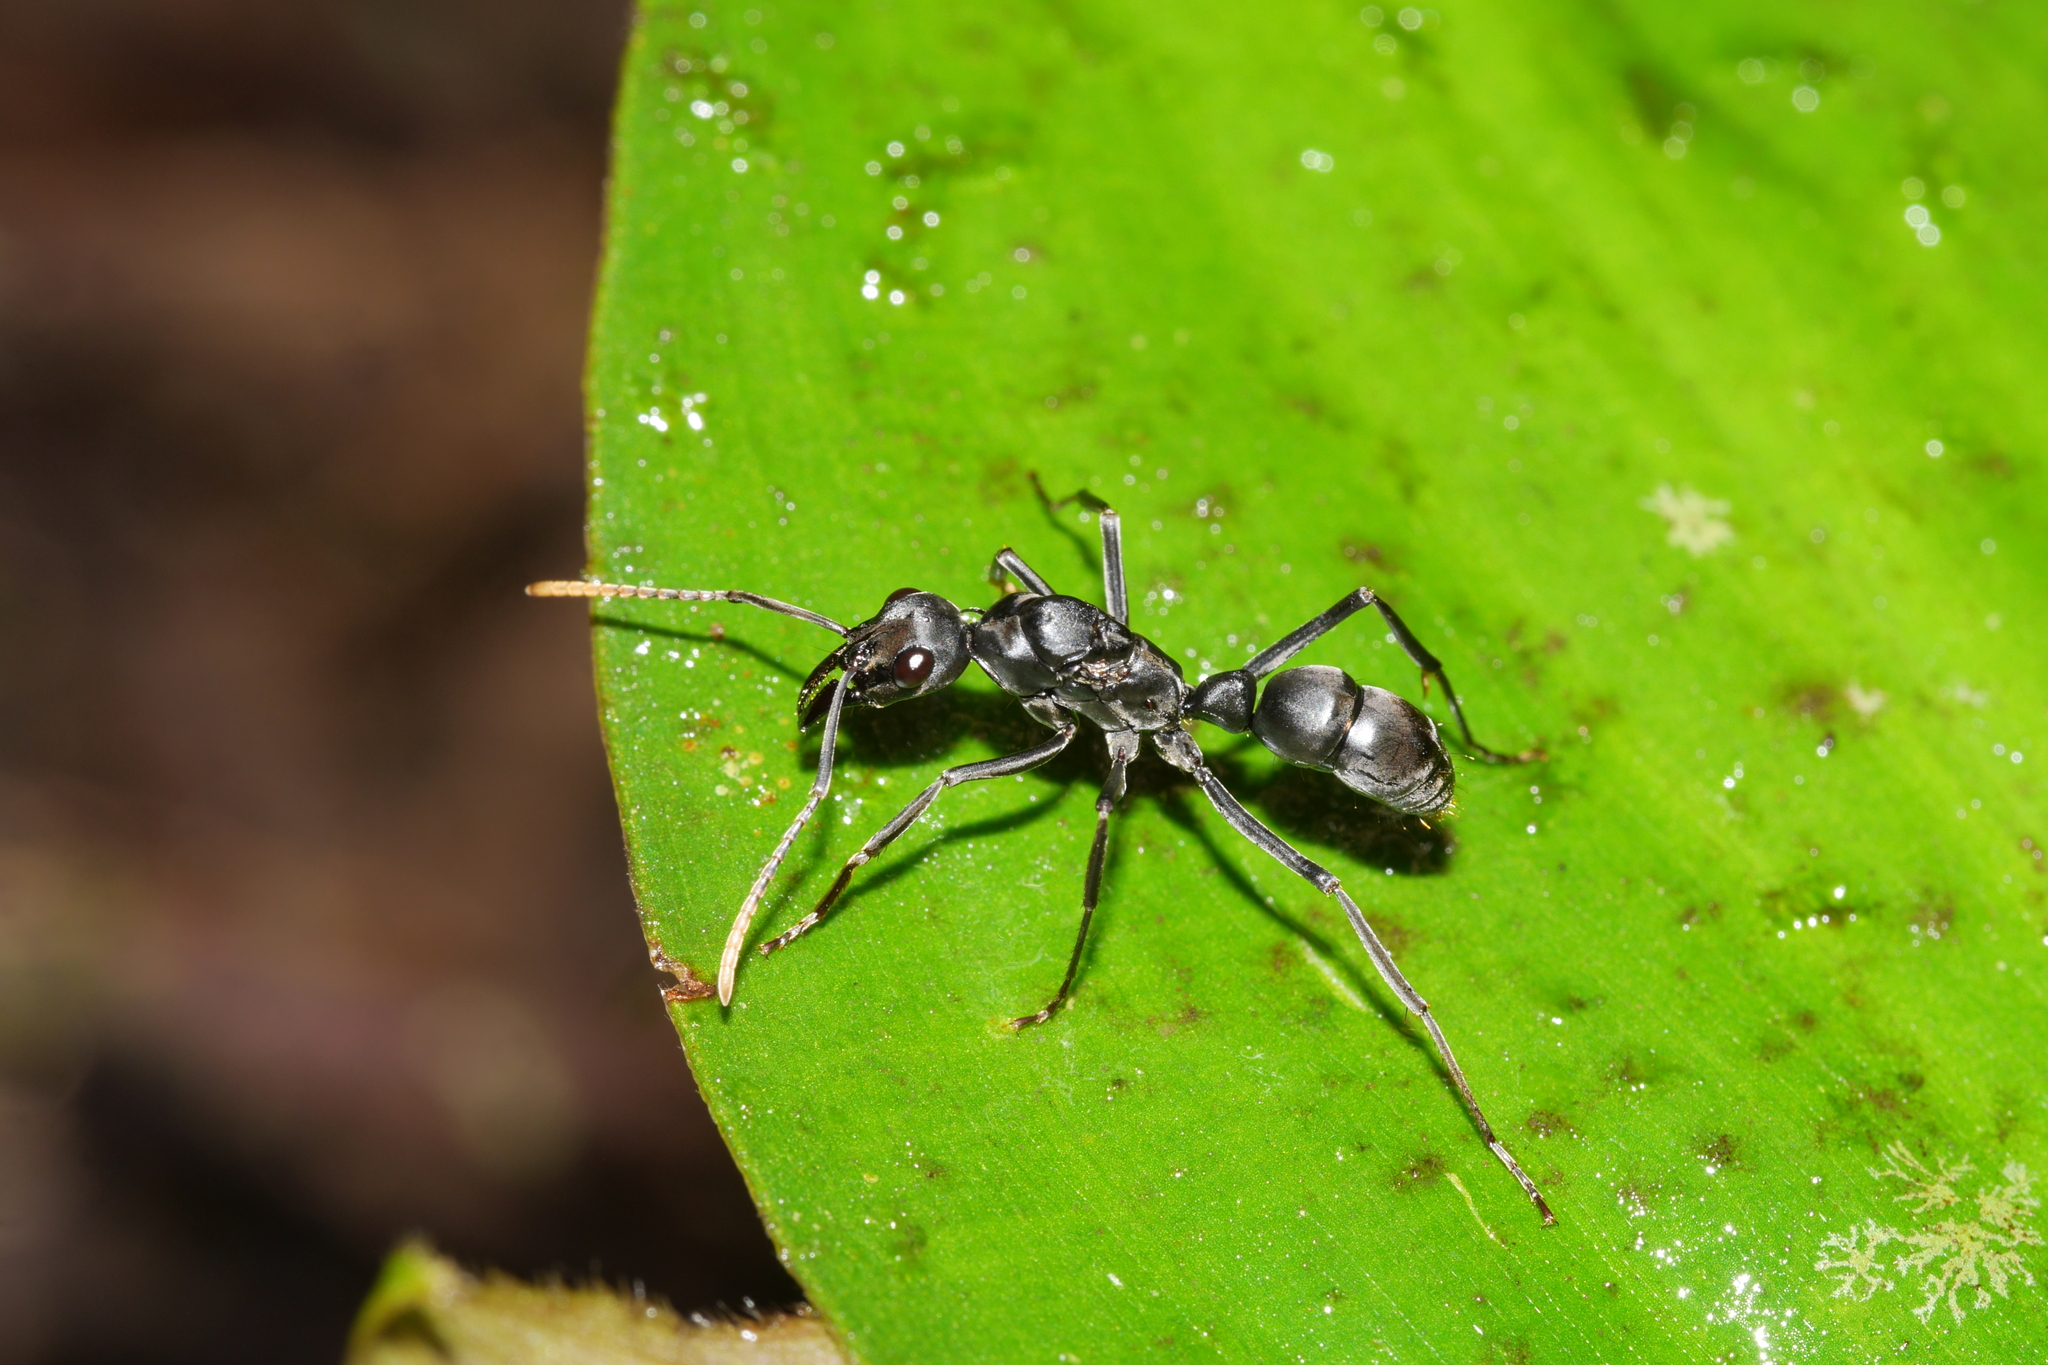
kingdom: Animalia
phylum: Arthropoda
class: Insecta
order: Hymenoptera
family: Formicidae
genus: Pachycondyla
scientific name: Pachycondyla apicalis
